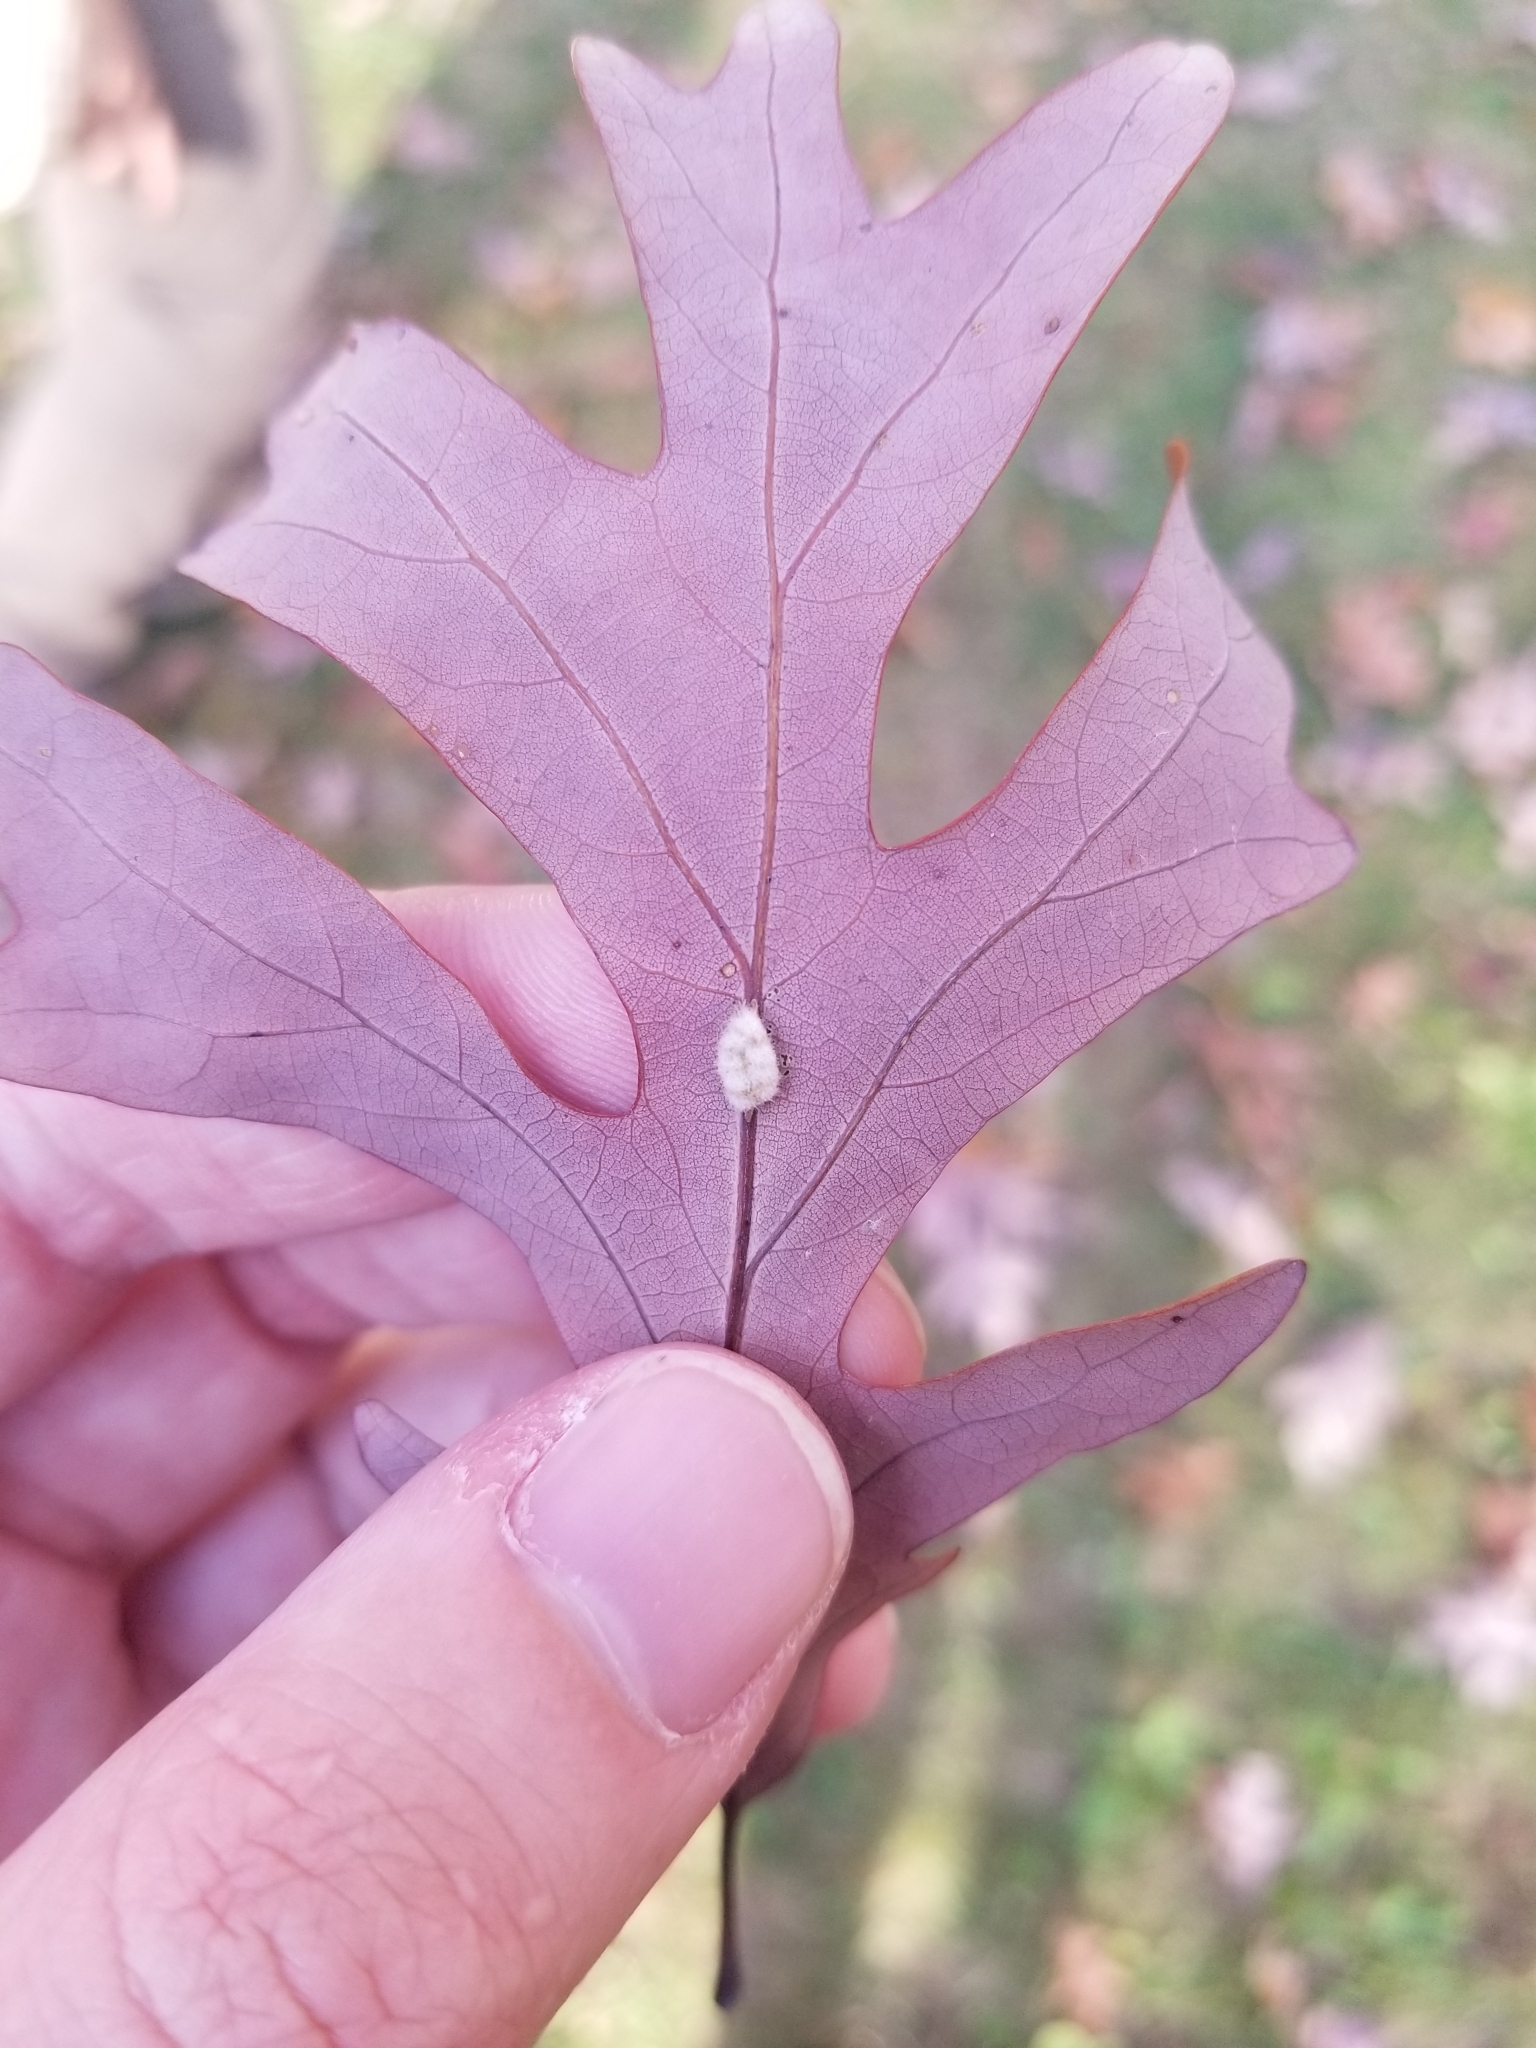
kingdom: Animalia
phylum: Arthropoda
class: Insecta
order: Hymenoptera
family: Cynipidae
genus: Andricus
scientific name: Andricus
